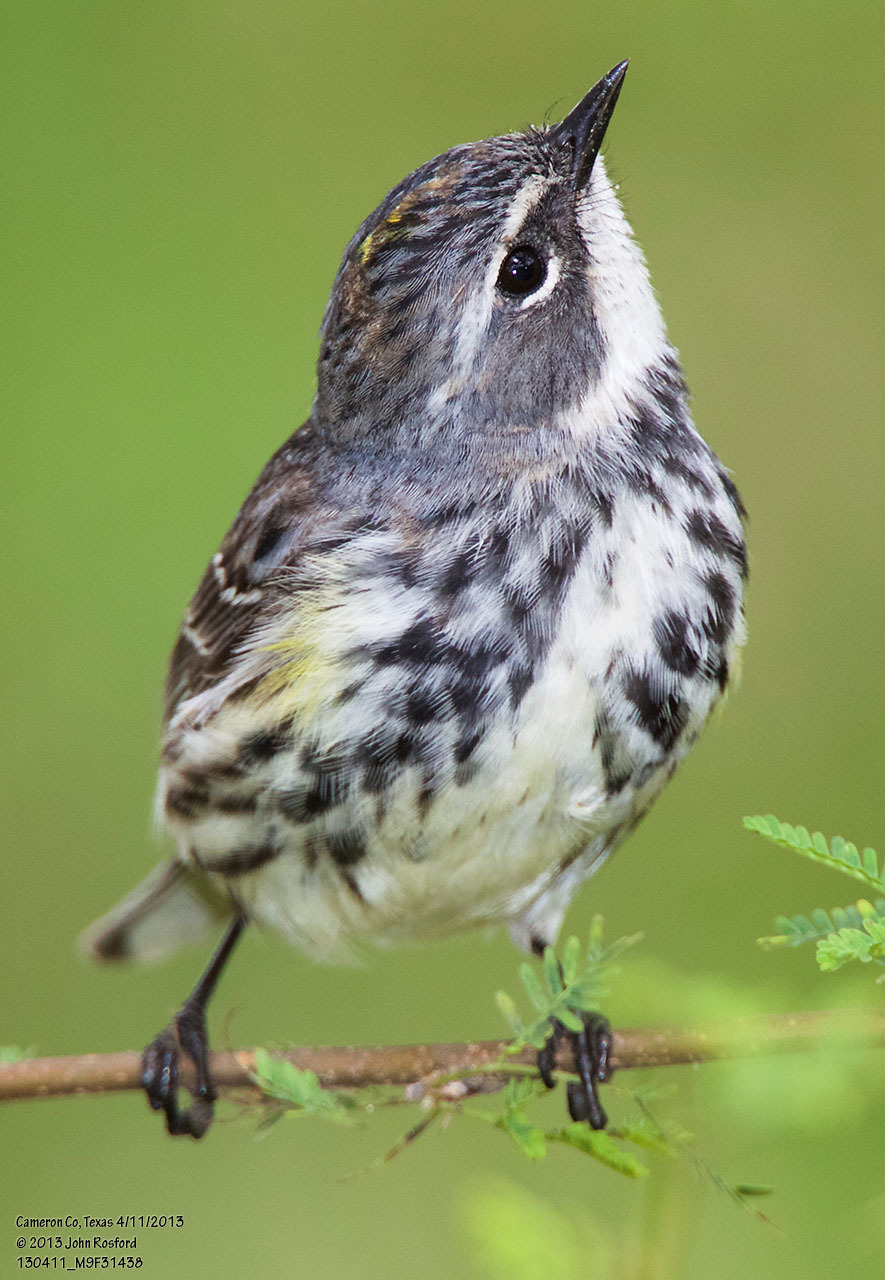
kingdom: Animalia
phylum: Chordata
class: Aves
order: Passeriformes
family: Parulidae
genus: Setophaga
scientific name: Setophaga coronata
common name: Myrtle warbler
